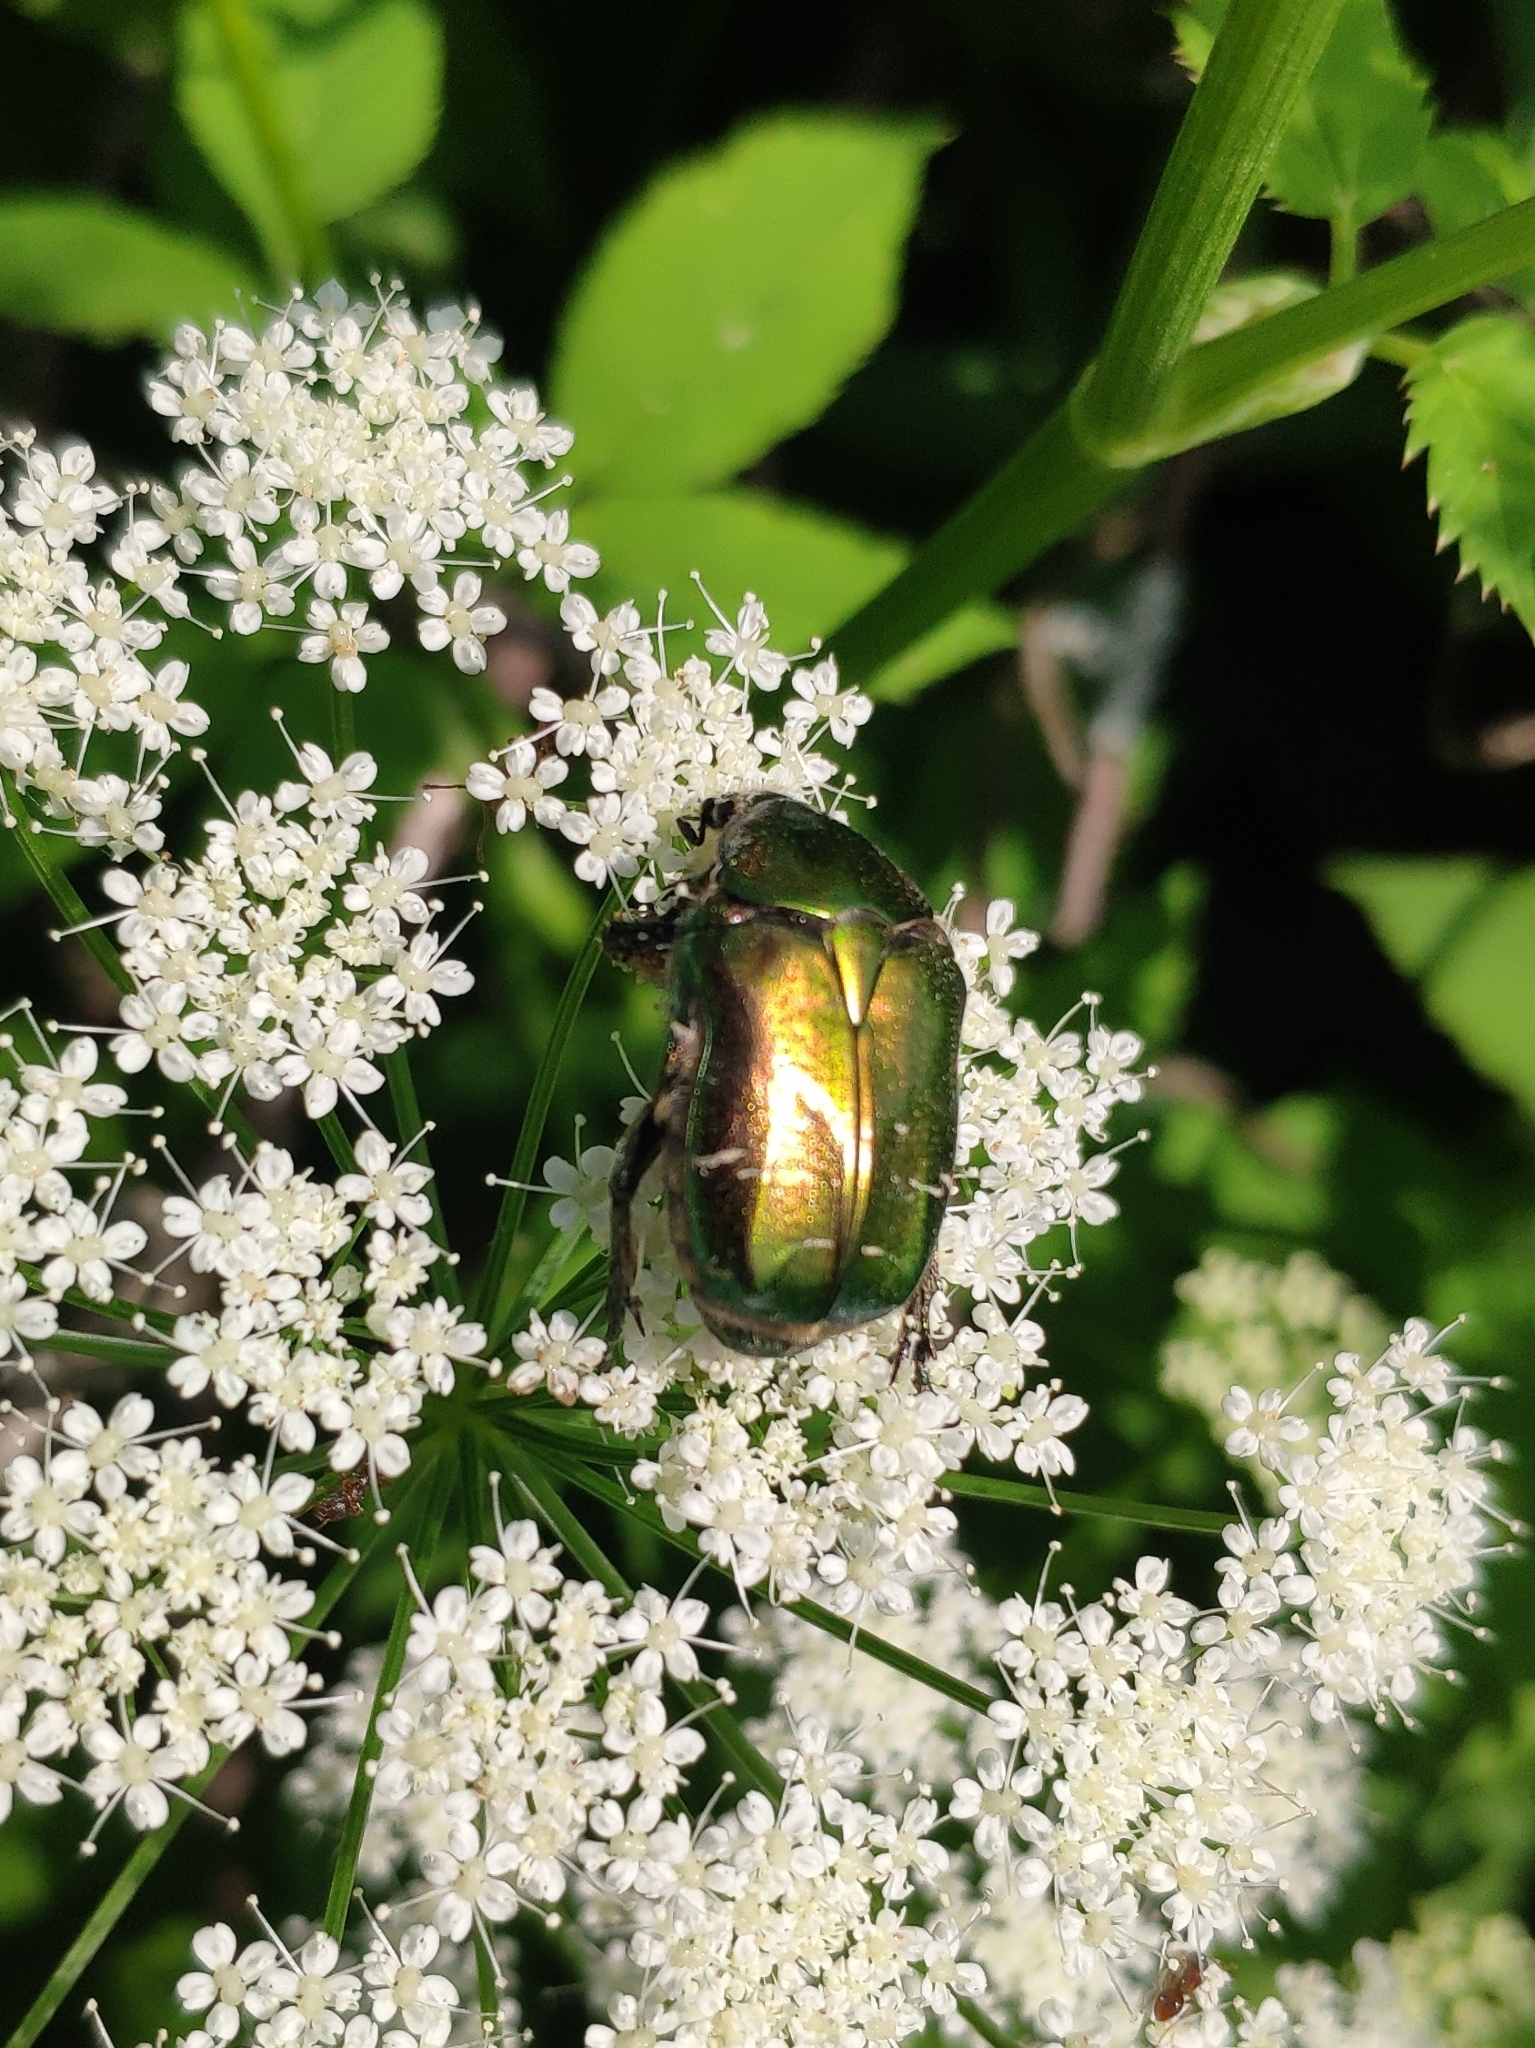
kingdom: Animalia
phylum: Arthropoda
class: Insecta
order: Coleoptera
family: Scarabaeidae
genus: Cetonia
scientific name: Cetonia aurata
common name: Rose chafer
